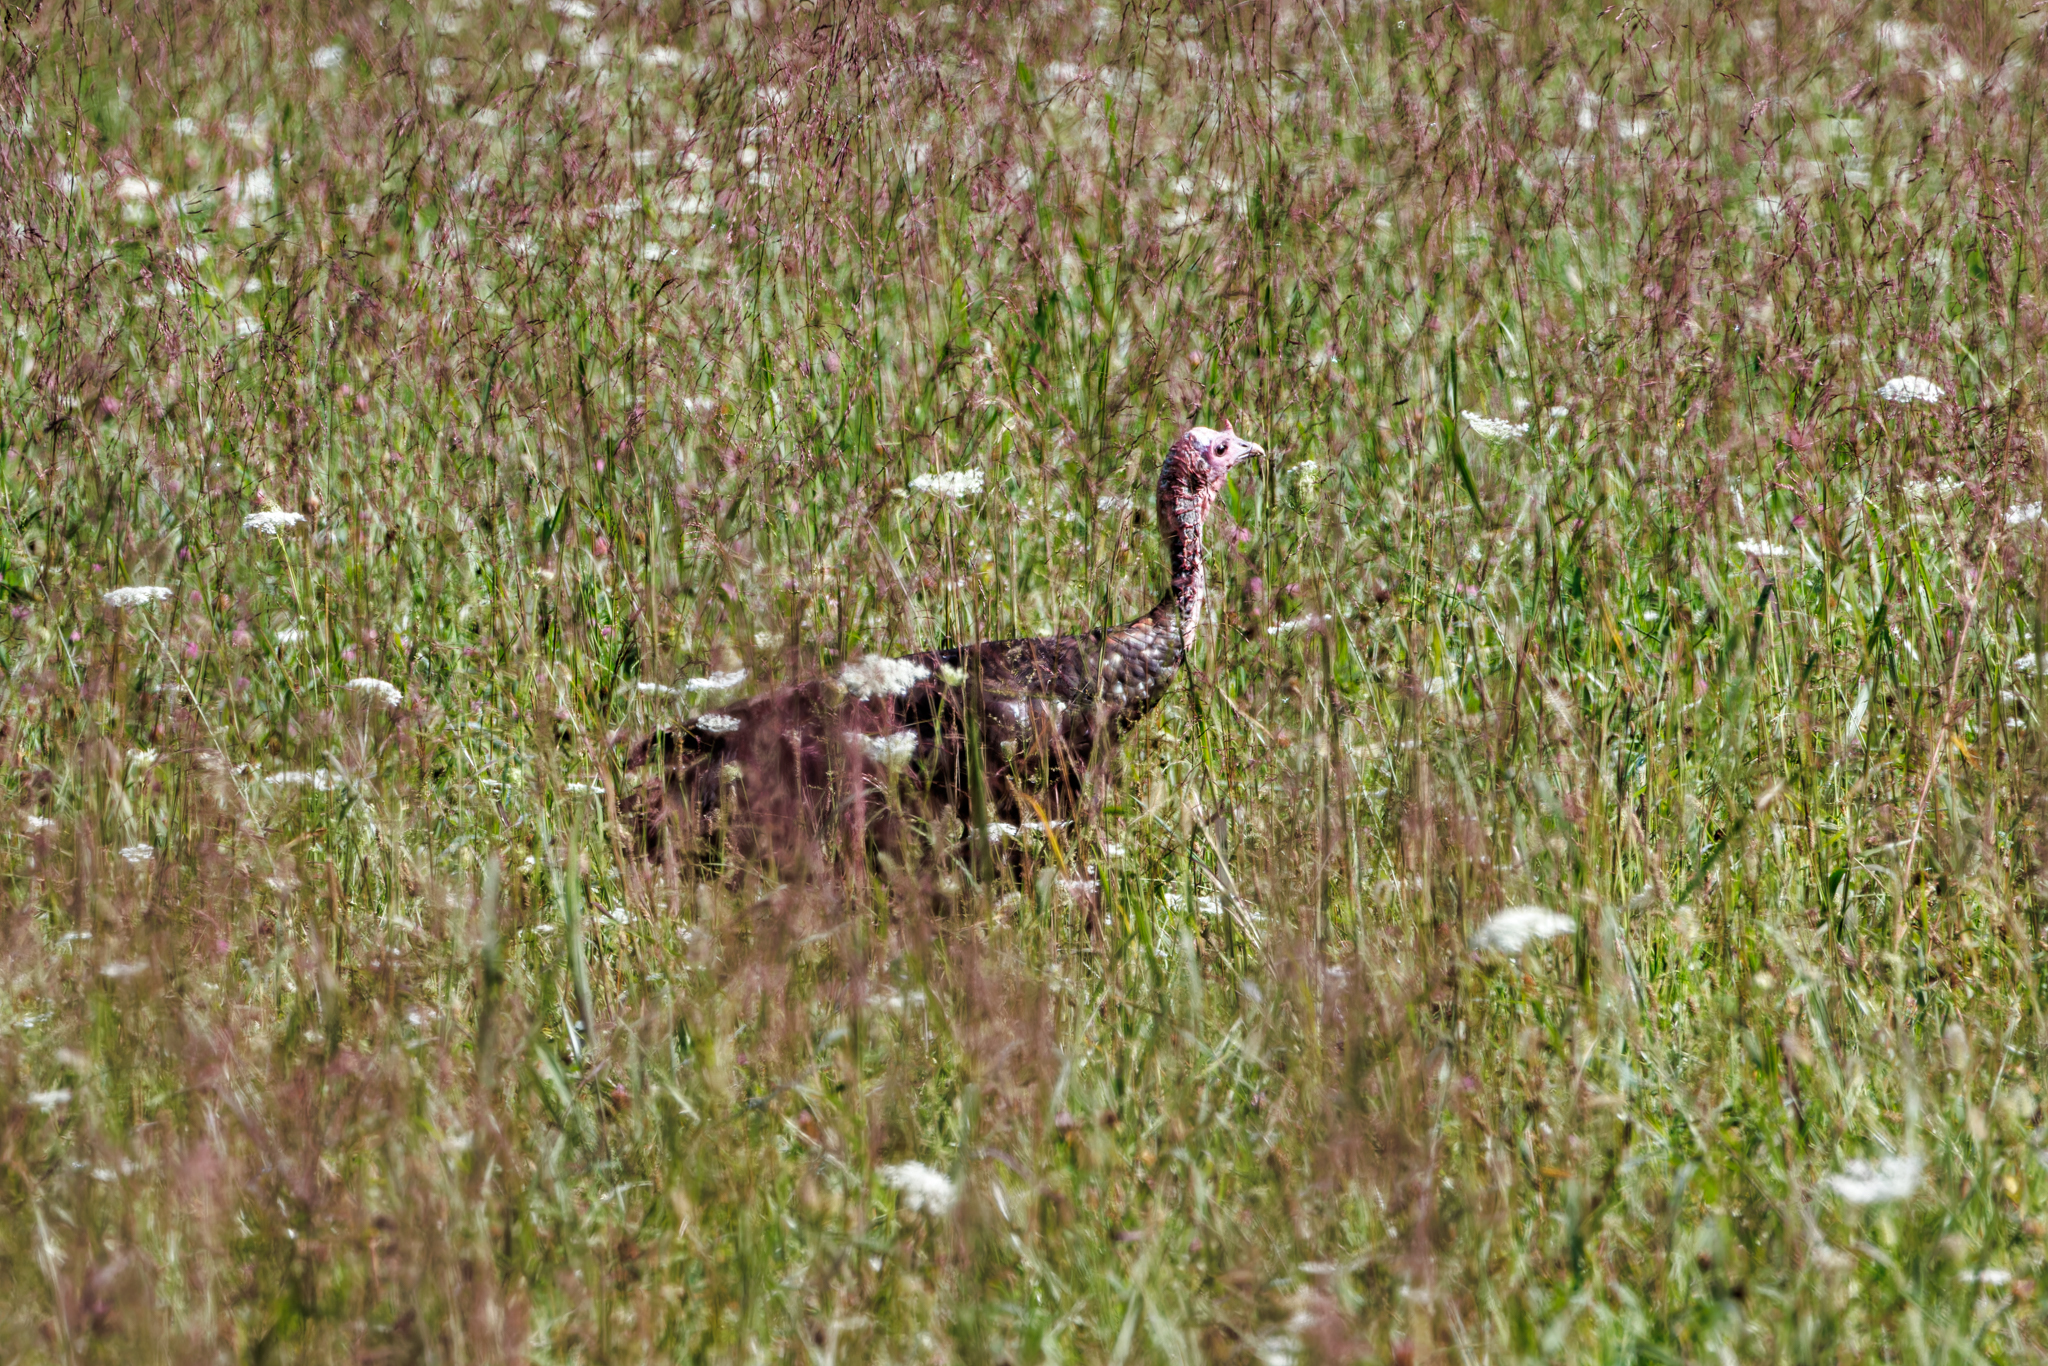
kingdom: Animalia
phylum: Chordata
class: Aves
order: Galliformes
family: Phasianidae
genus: Meleagris
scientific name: Meleagris gallopavo
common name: Wild turkey
